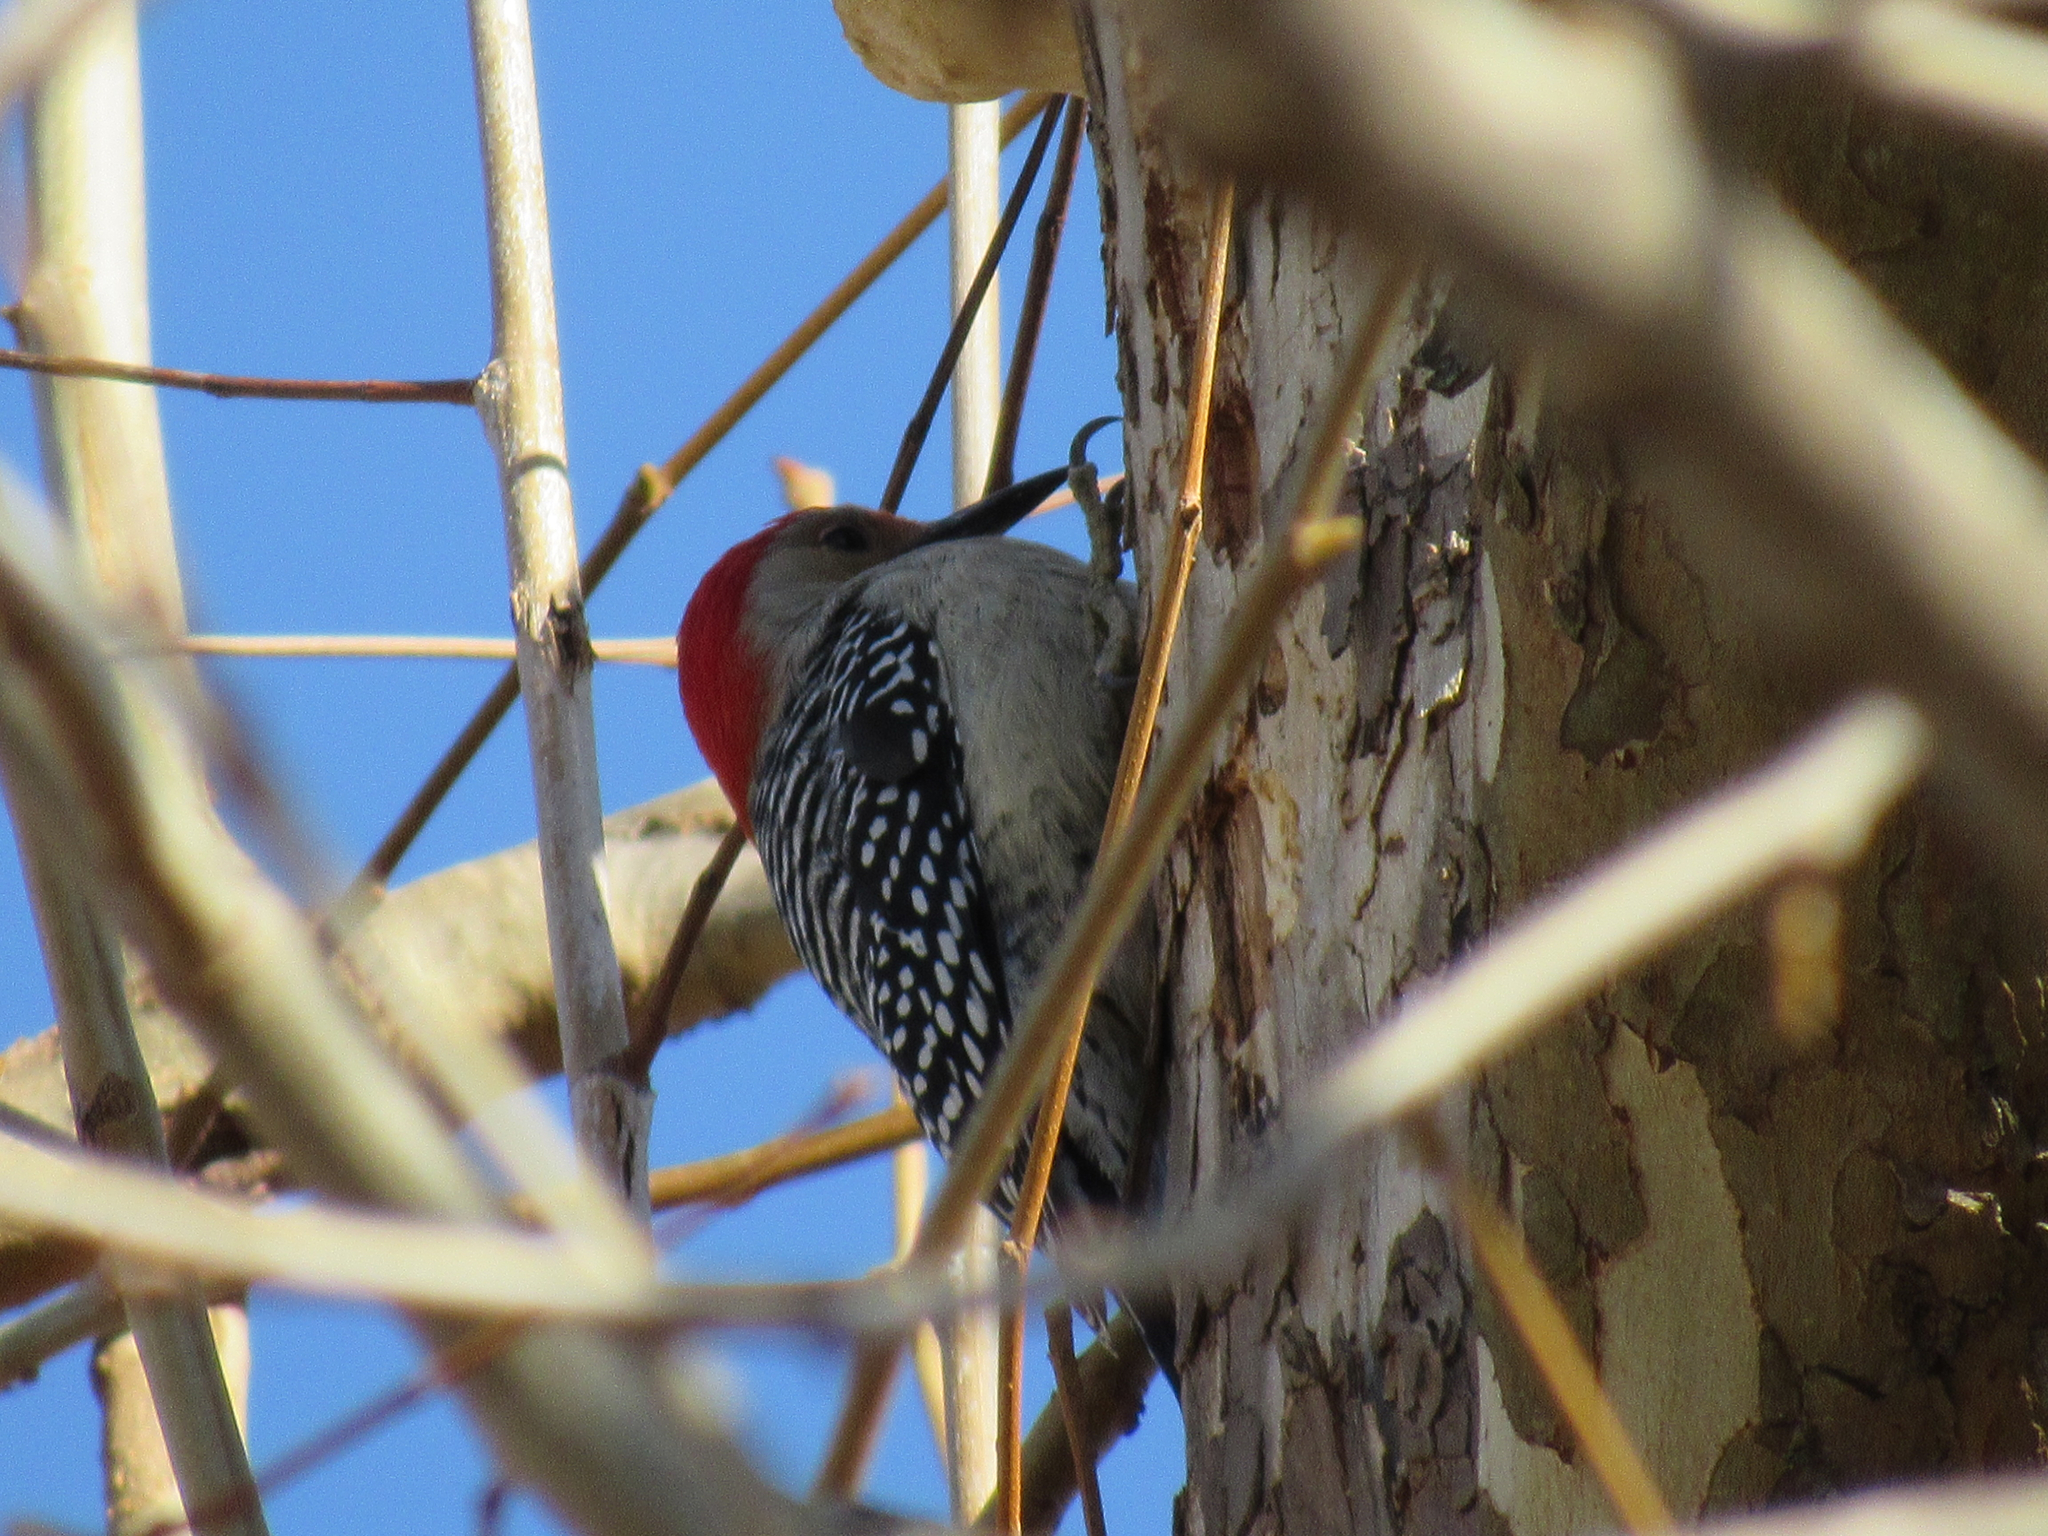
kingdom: Animalia
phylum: Chordata
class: Aves
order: Piciformes
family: Picidae
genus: Melanerpes
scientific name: Melanerpes carolinus
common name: Red-bellied woodpecker
